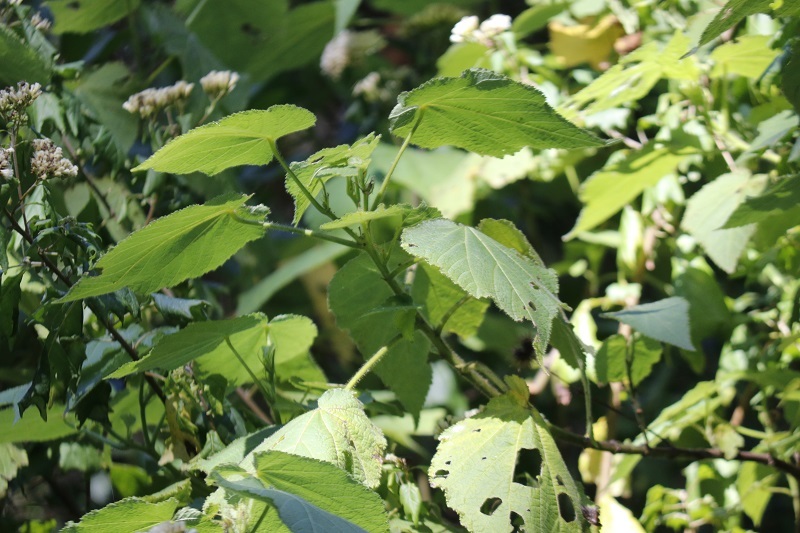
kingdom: Plantae
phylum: Tracheophyta
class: Magnoliopsida
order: Malvales
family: Malvaceae
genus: Sparrmannia
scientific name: Sparrmannia africana
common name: African-hemp
